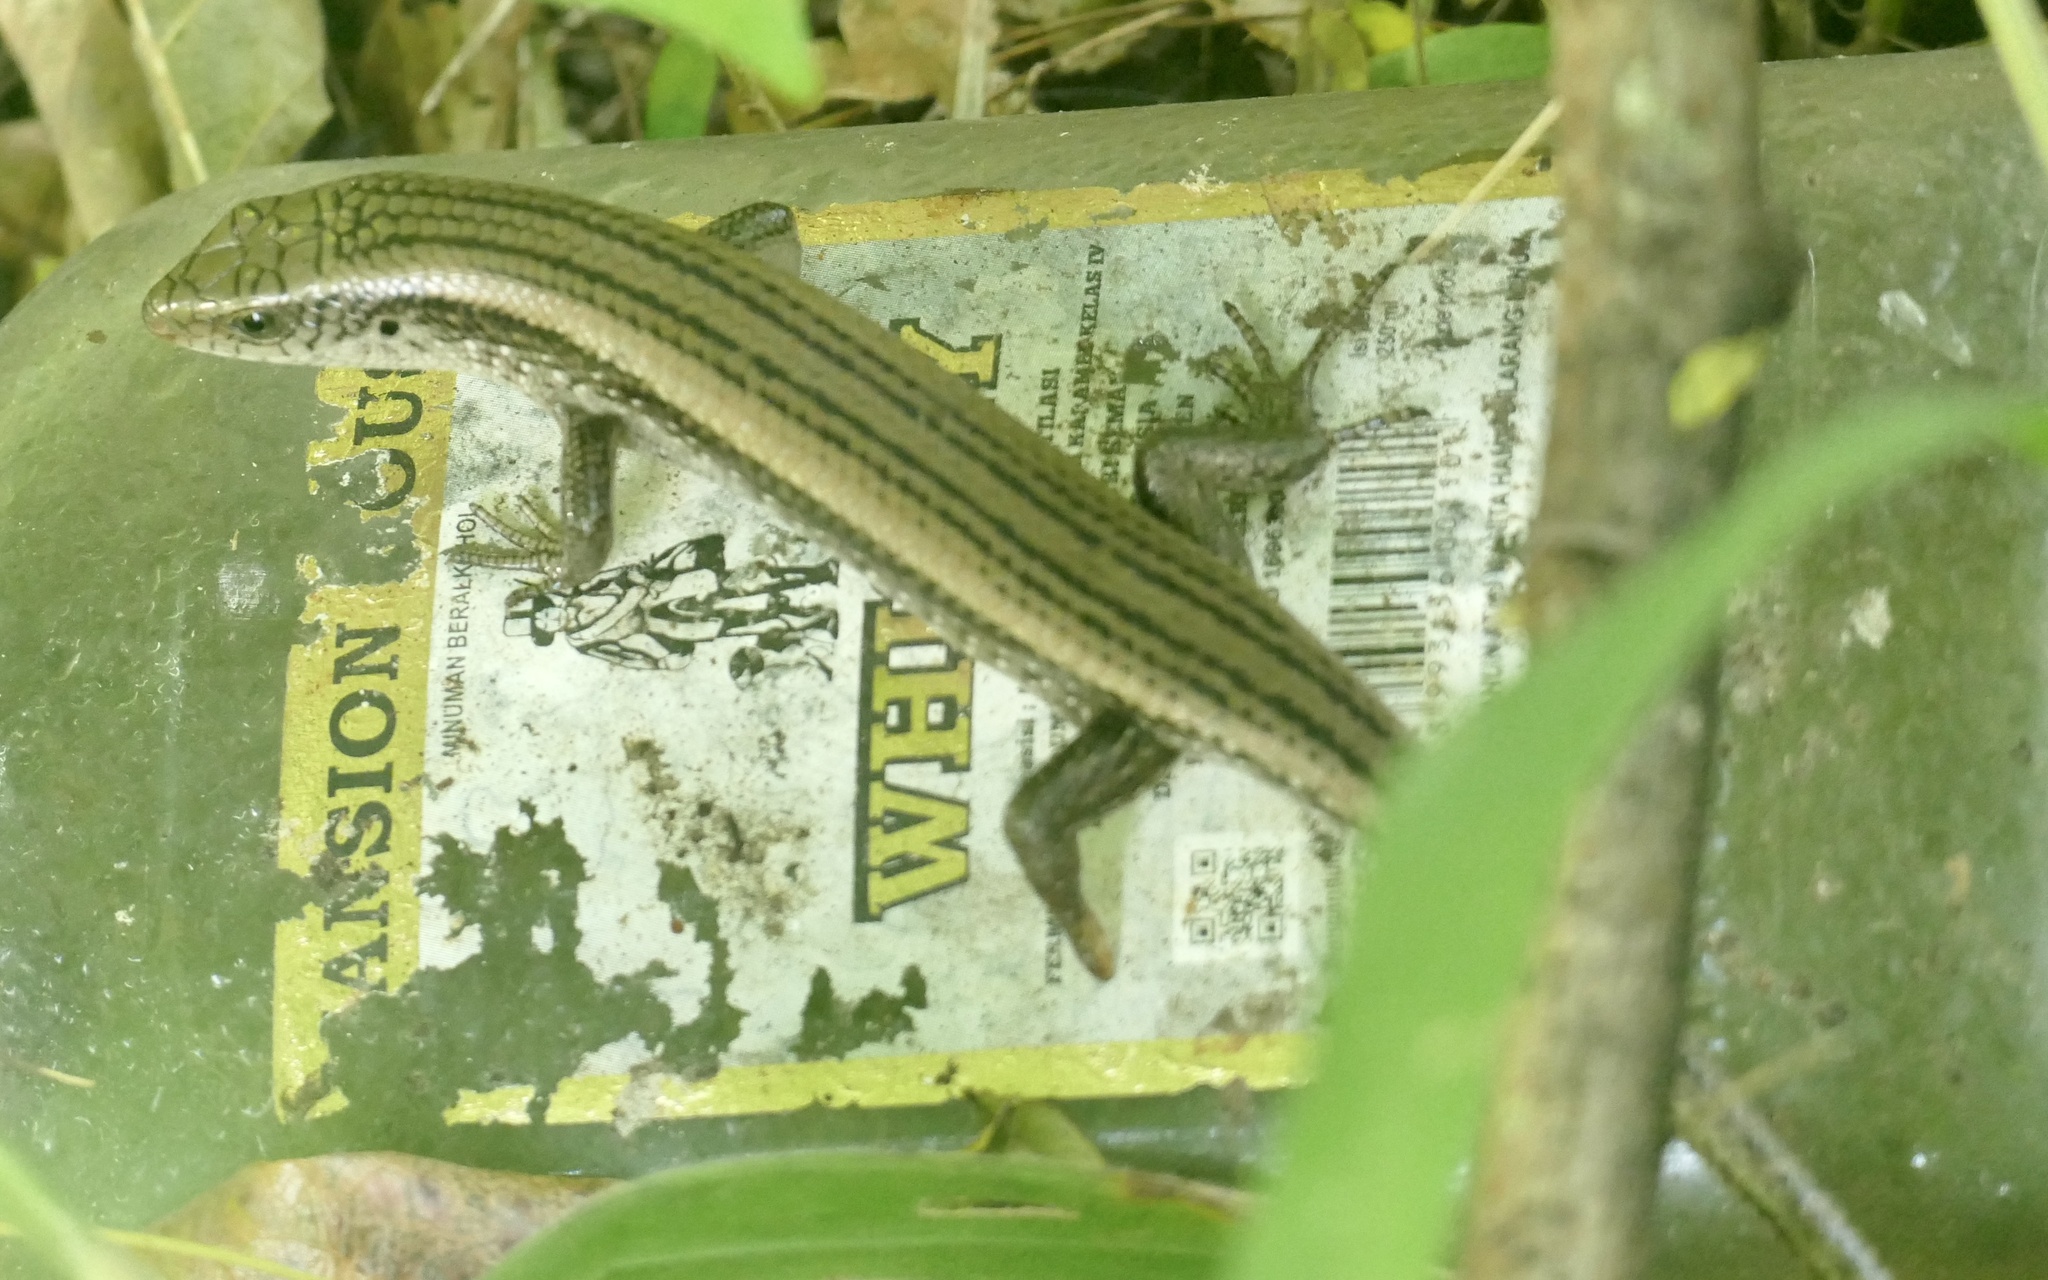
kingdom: Animalia
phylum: Chordata
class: Squamata
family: Scincidae
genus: Eutropis
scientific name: Eutropis multifasciata
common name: Common mabuya
